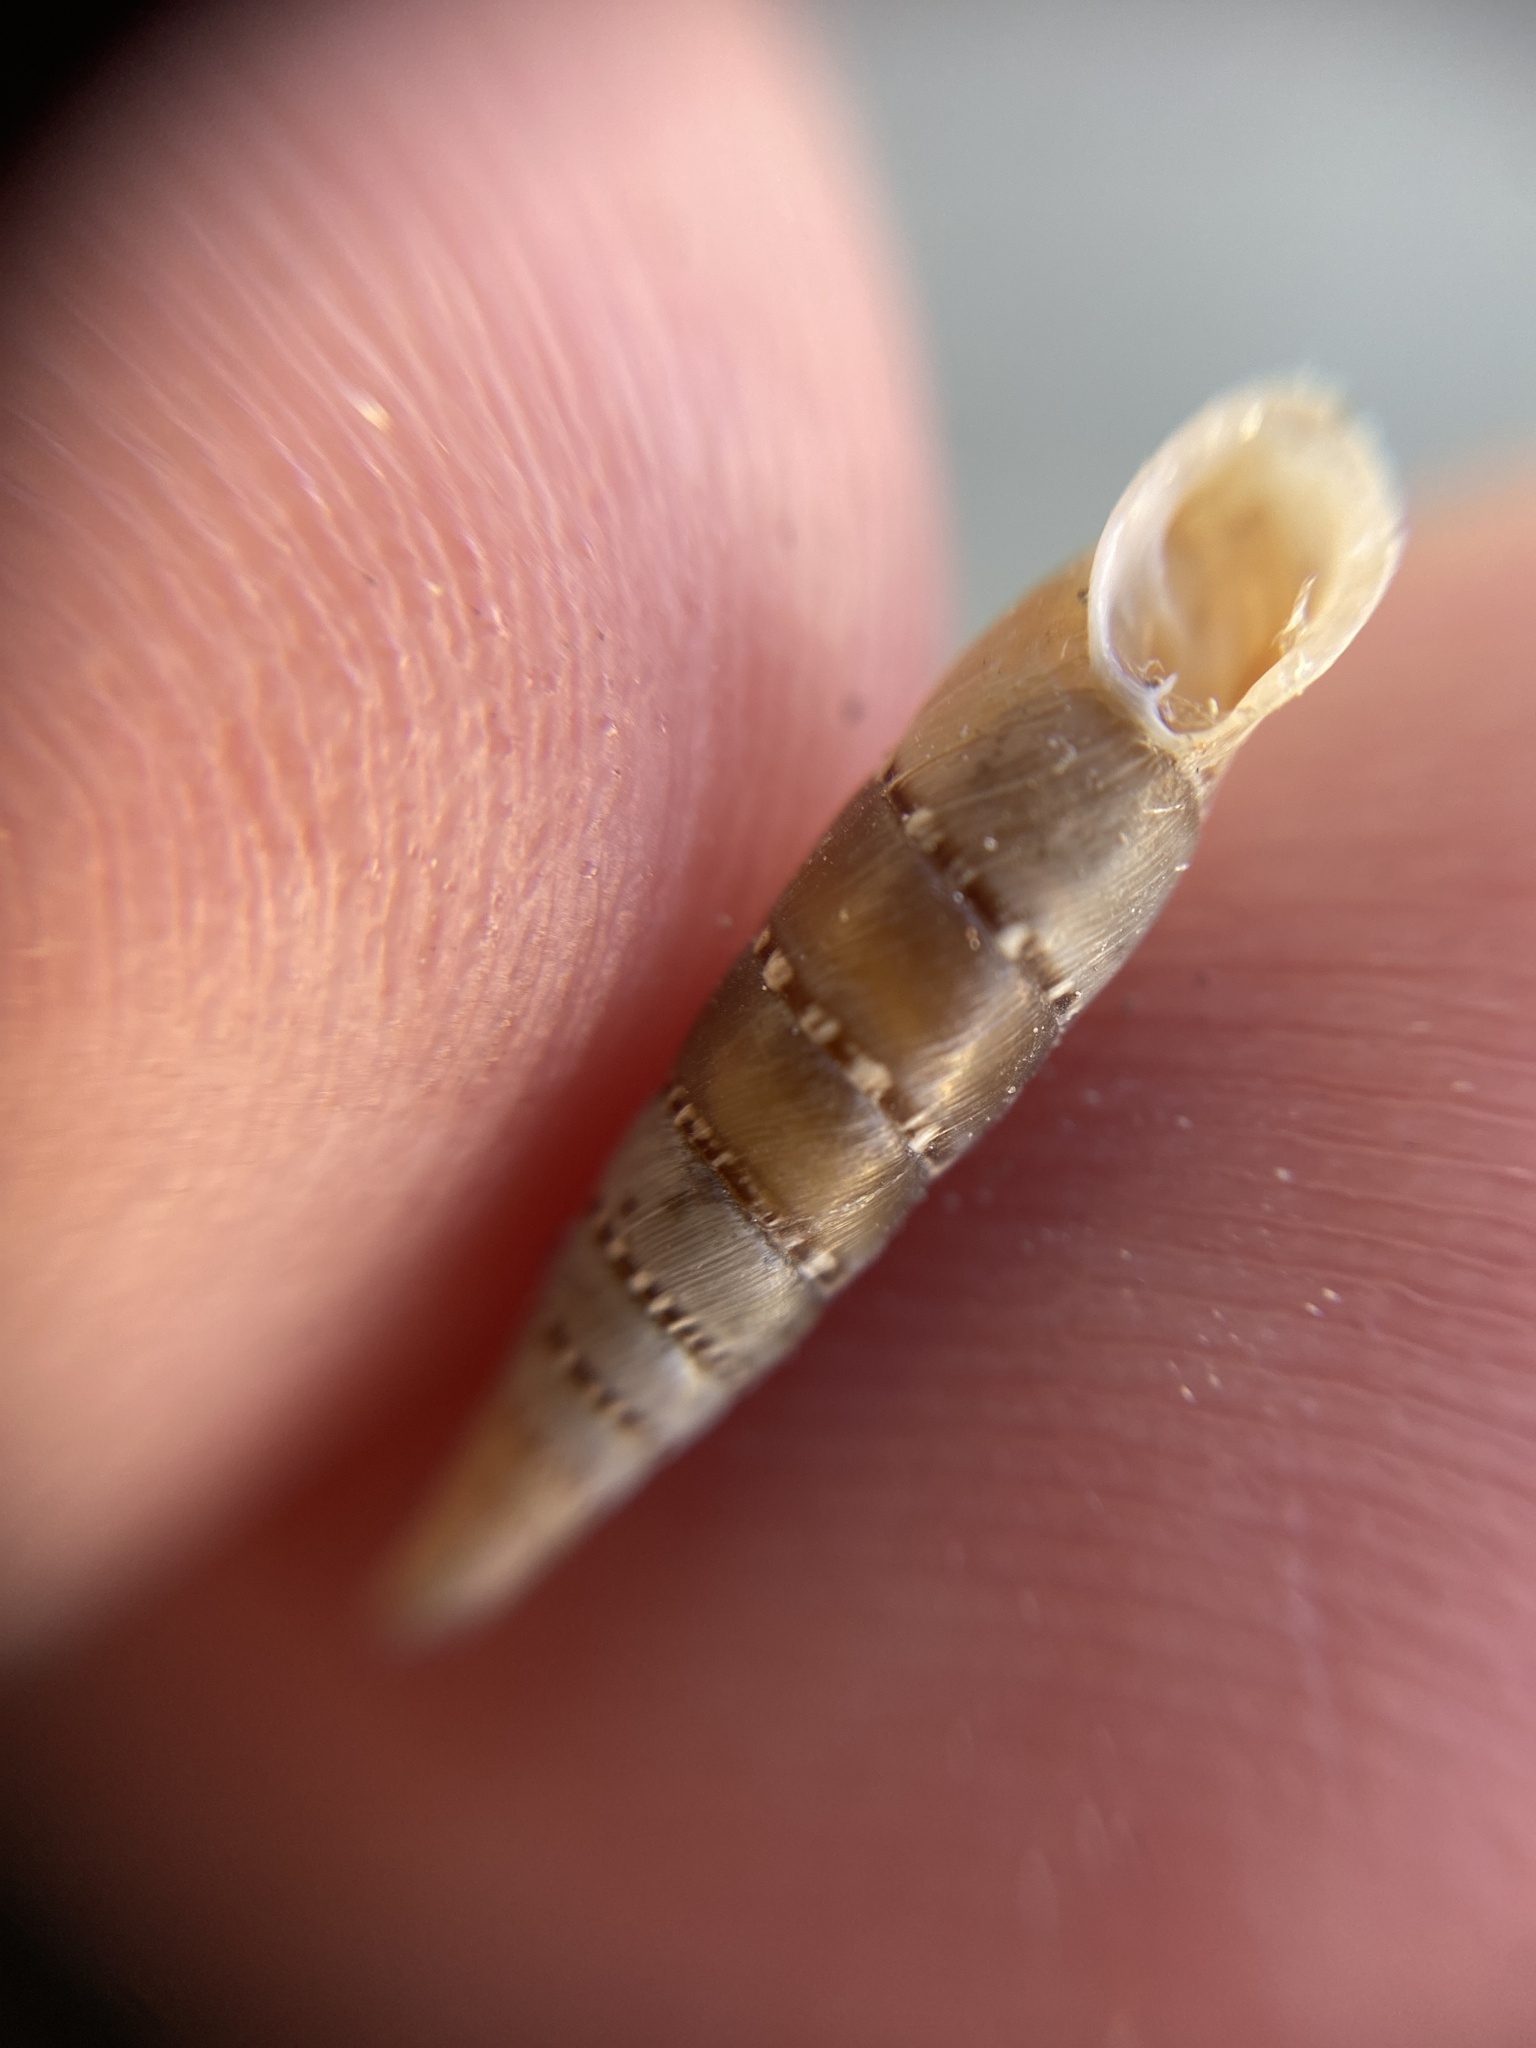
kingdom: Animalia
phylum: Mollusca
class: Gastropoda
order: Stylommatophora
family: Clausiliidae
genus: Papillifera
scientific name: Papillifera papillaris
